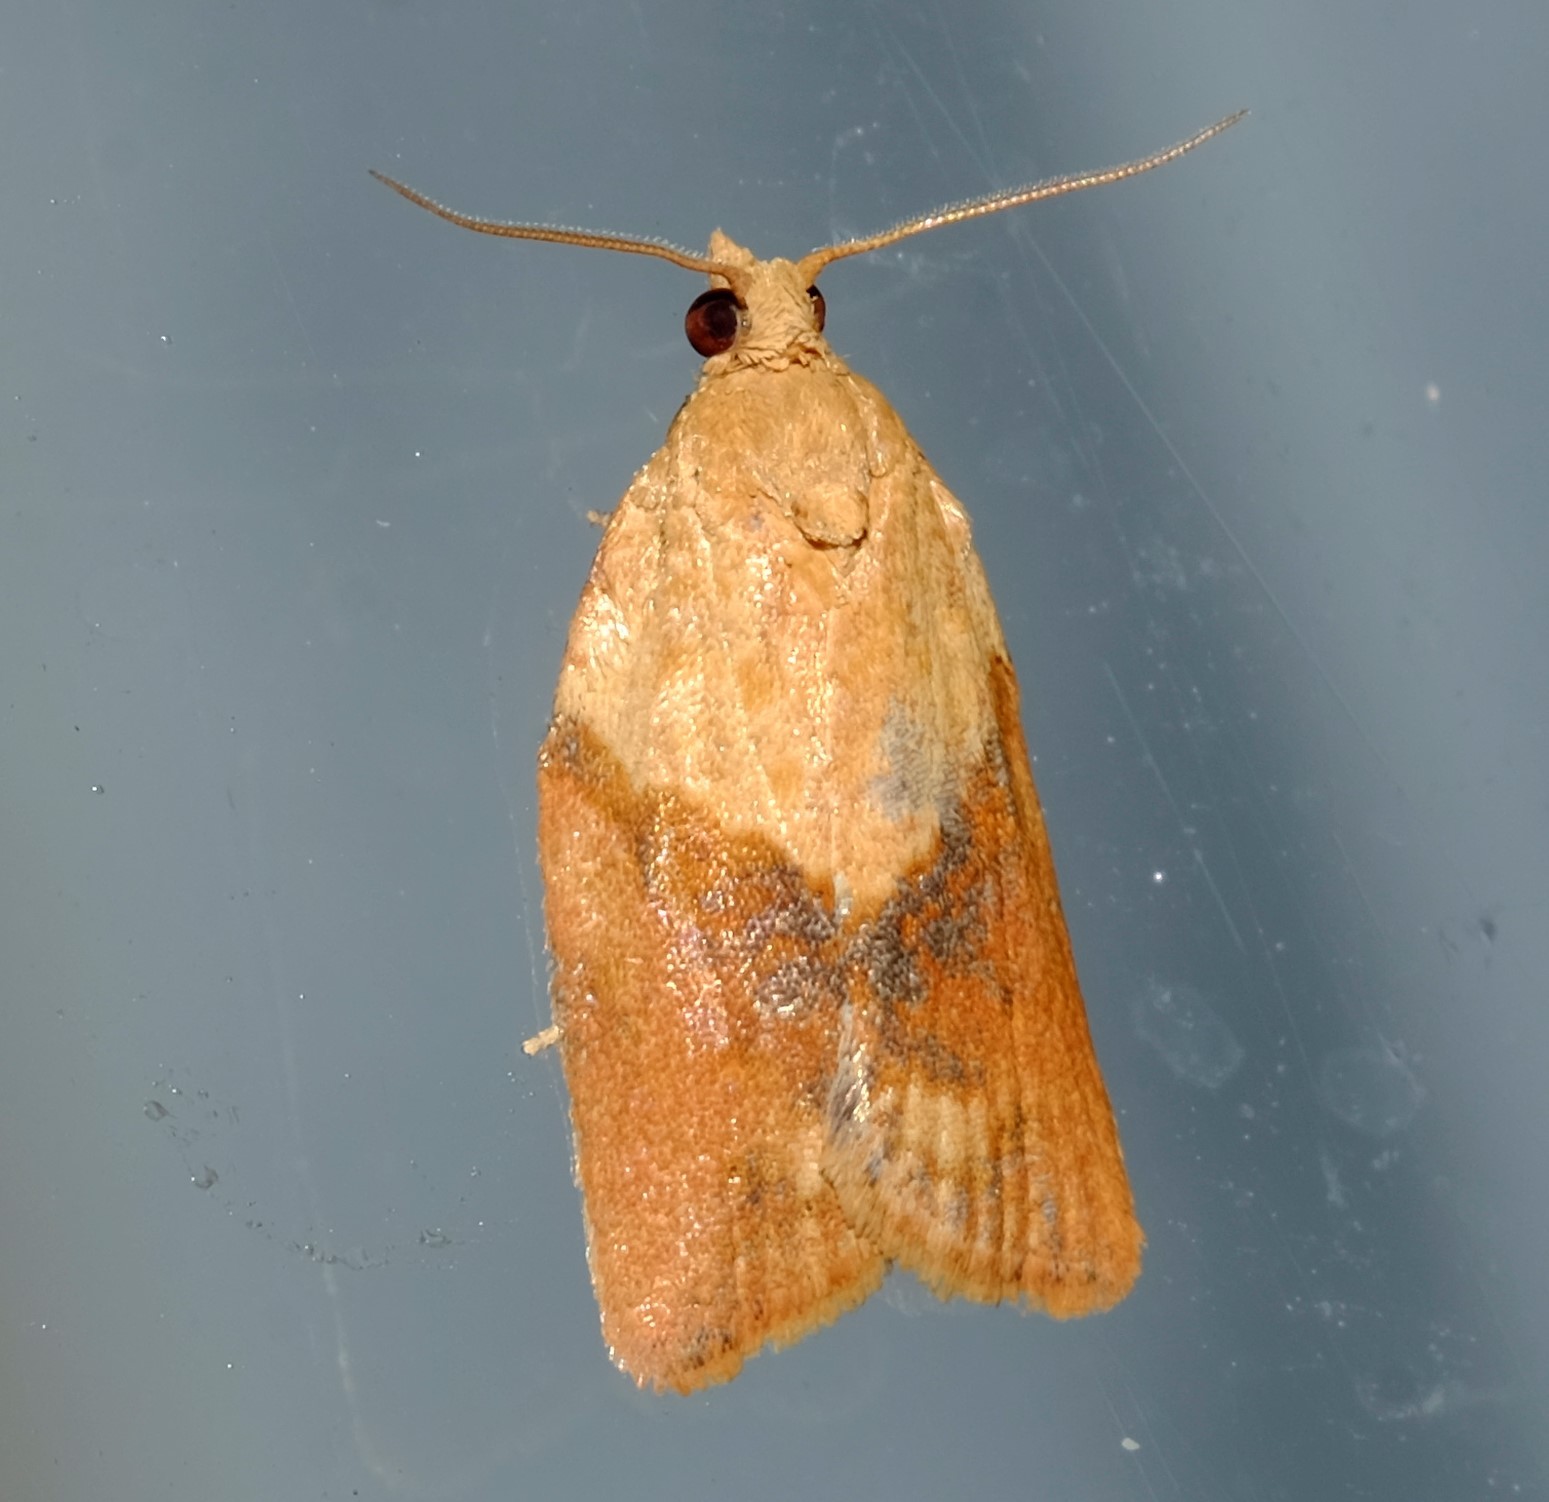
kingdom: Animalia
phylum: Arthropoda
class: Insecta
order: Lepidoptera
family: Tortricidae
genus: Epiphyas
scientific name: Epiphyas postvittana
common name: Light brown apple moth
